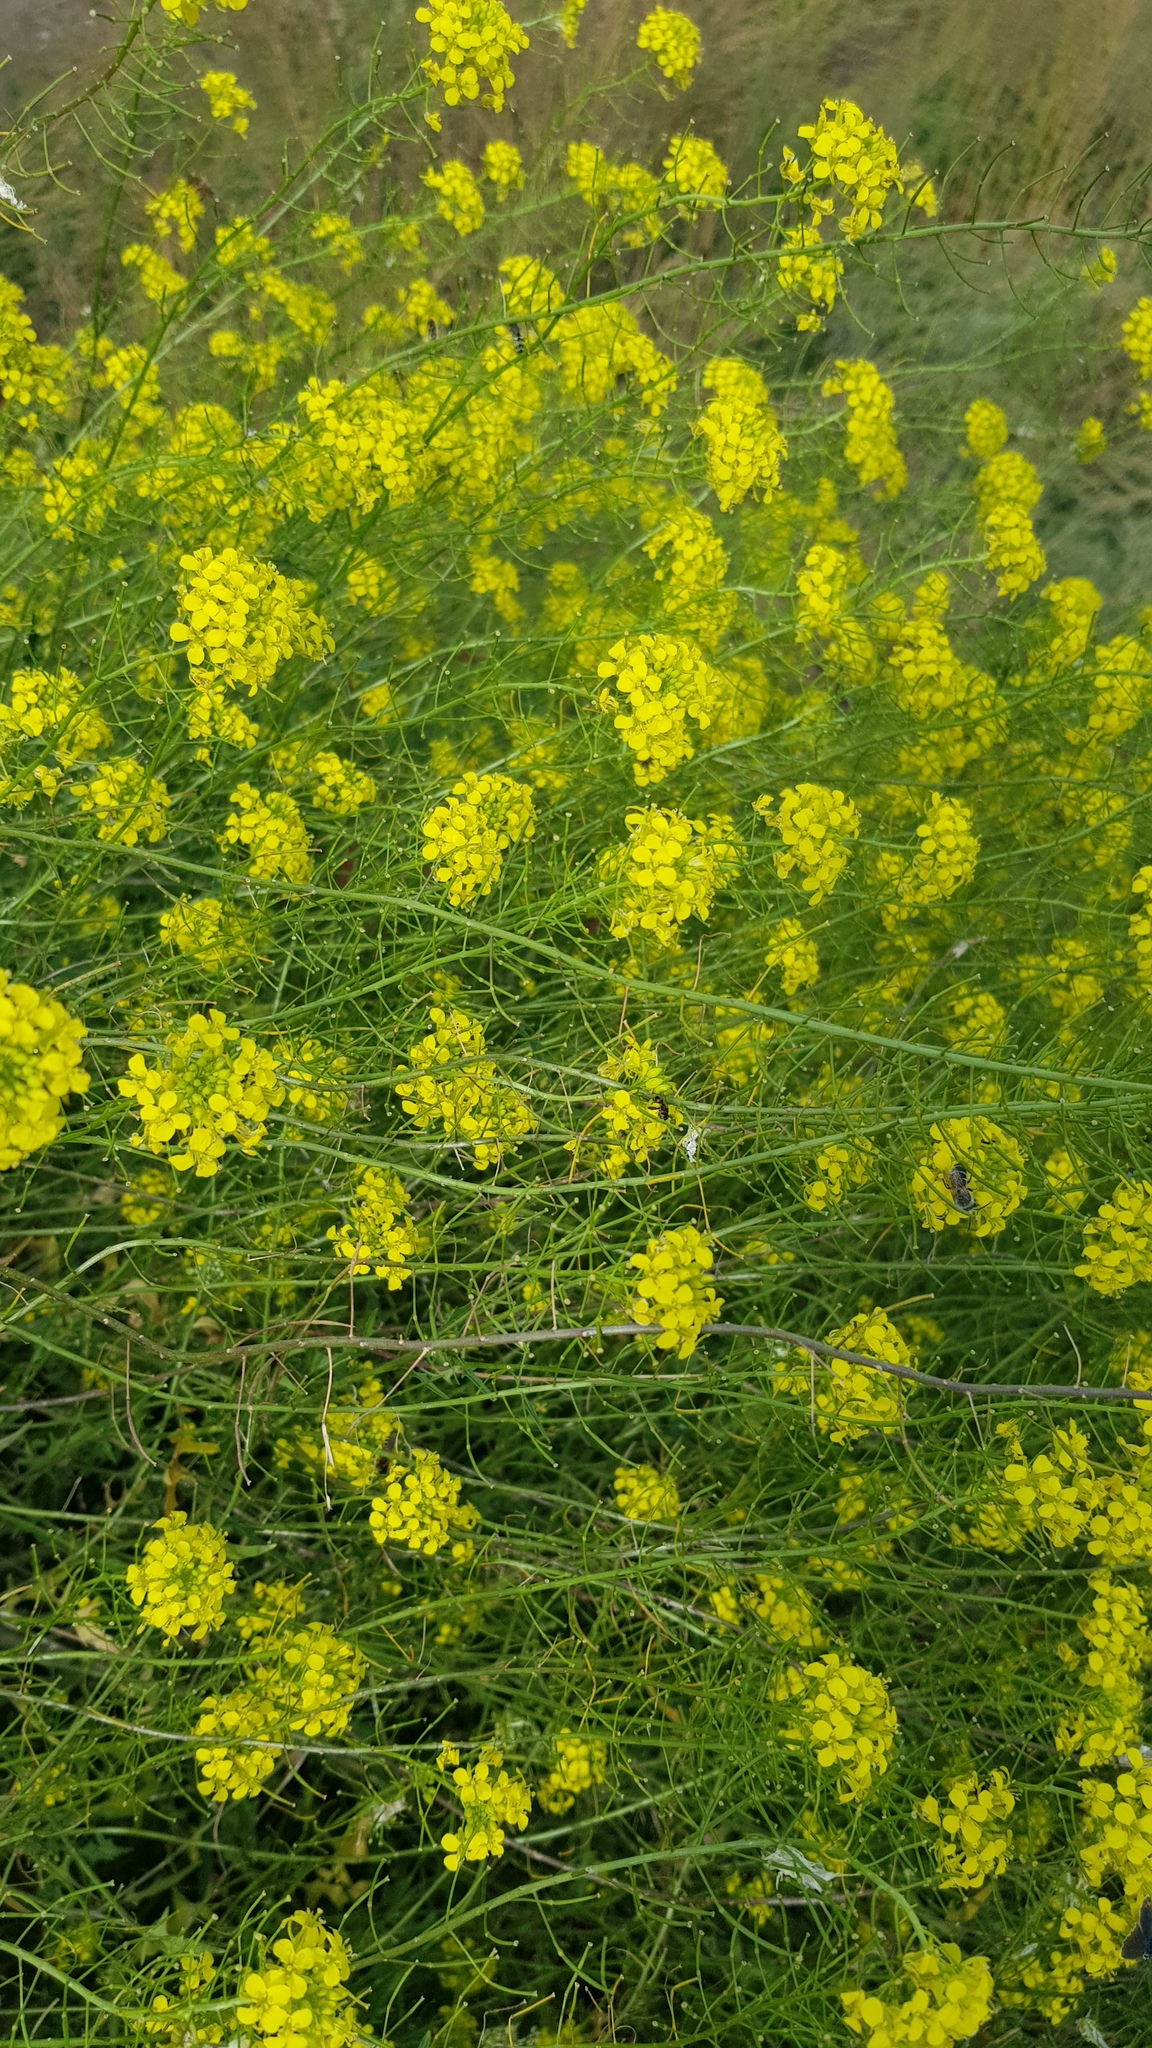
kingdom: Plantae
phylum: Tracheophyta
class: Magnoliopsida
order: Brassicales
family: Brassicaceae
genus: Sisymbrium
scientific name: Sisymbrium loeselii
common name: False london-rocket
